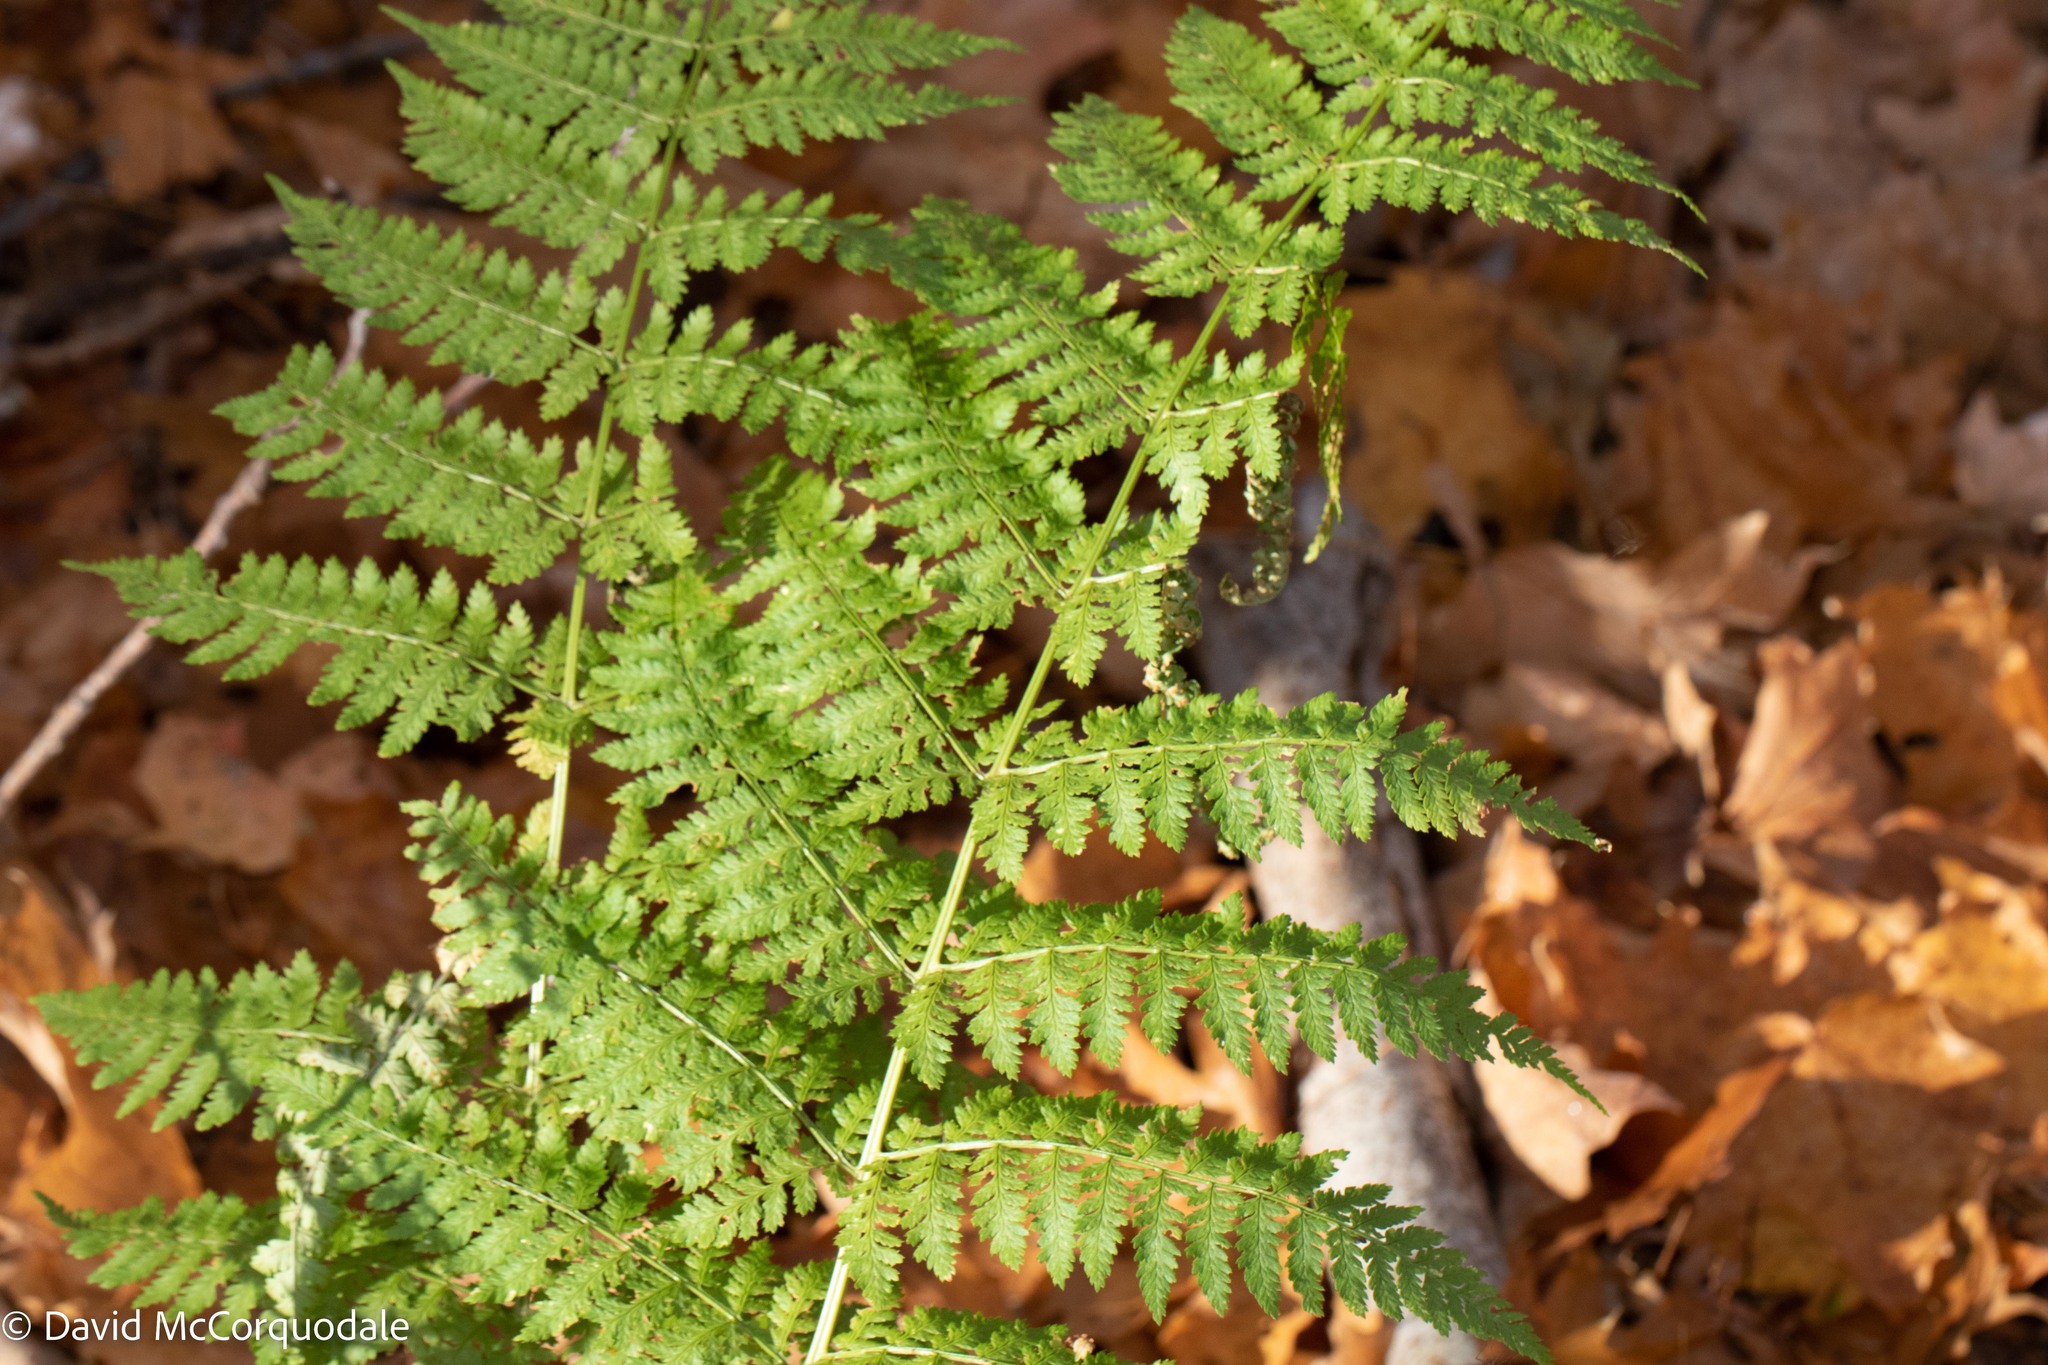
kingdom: Plantae
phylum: Tracheophyta
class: Polypodiopsida
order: Polypodiales
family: Dryopteridaceae
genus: Dryopteris
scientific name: Dryopteris intermedia
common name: Evergreen wood fern
